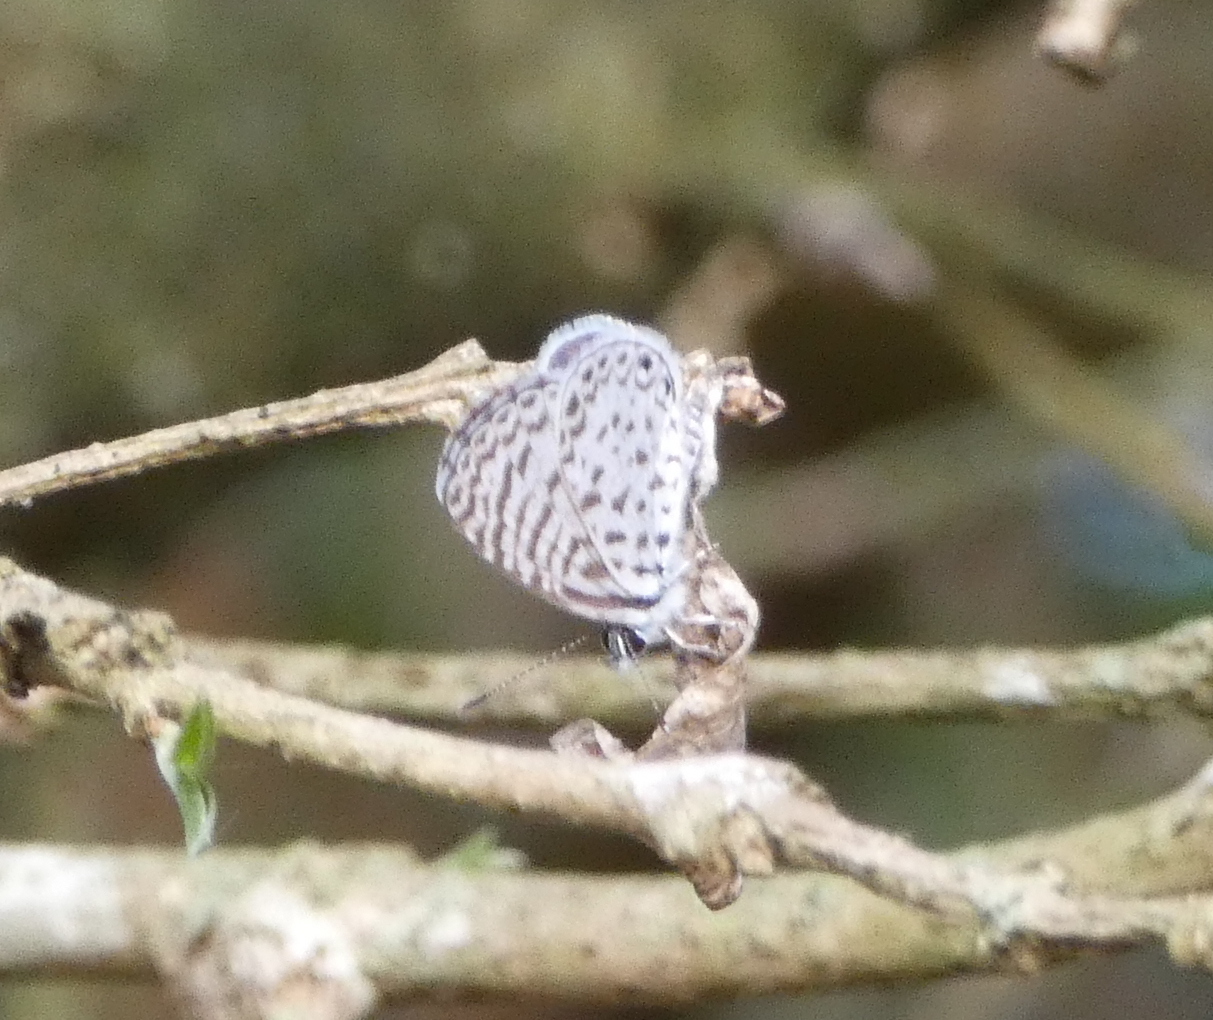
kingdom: Animalia
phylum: Arthropoda
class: Insecta
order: Lepidoptera
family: Lycaenidae
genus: Leptotes
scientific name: Leptotes cassius
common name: Cassius blue
